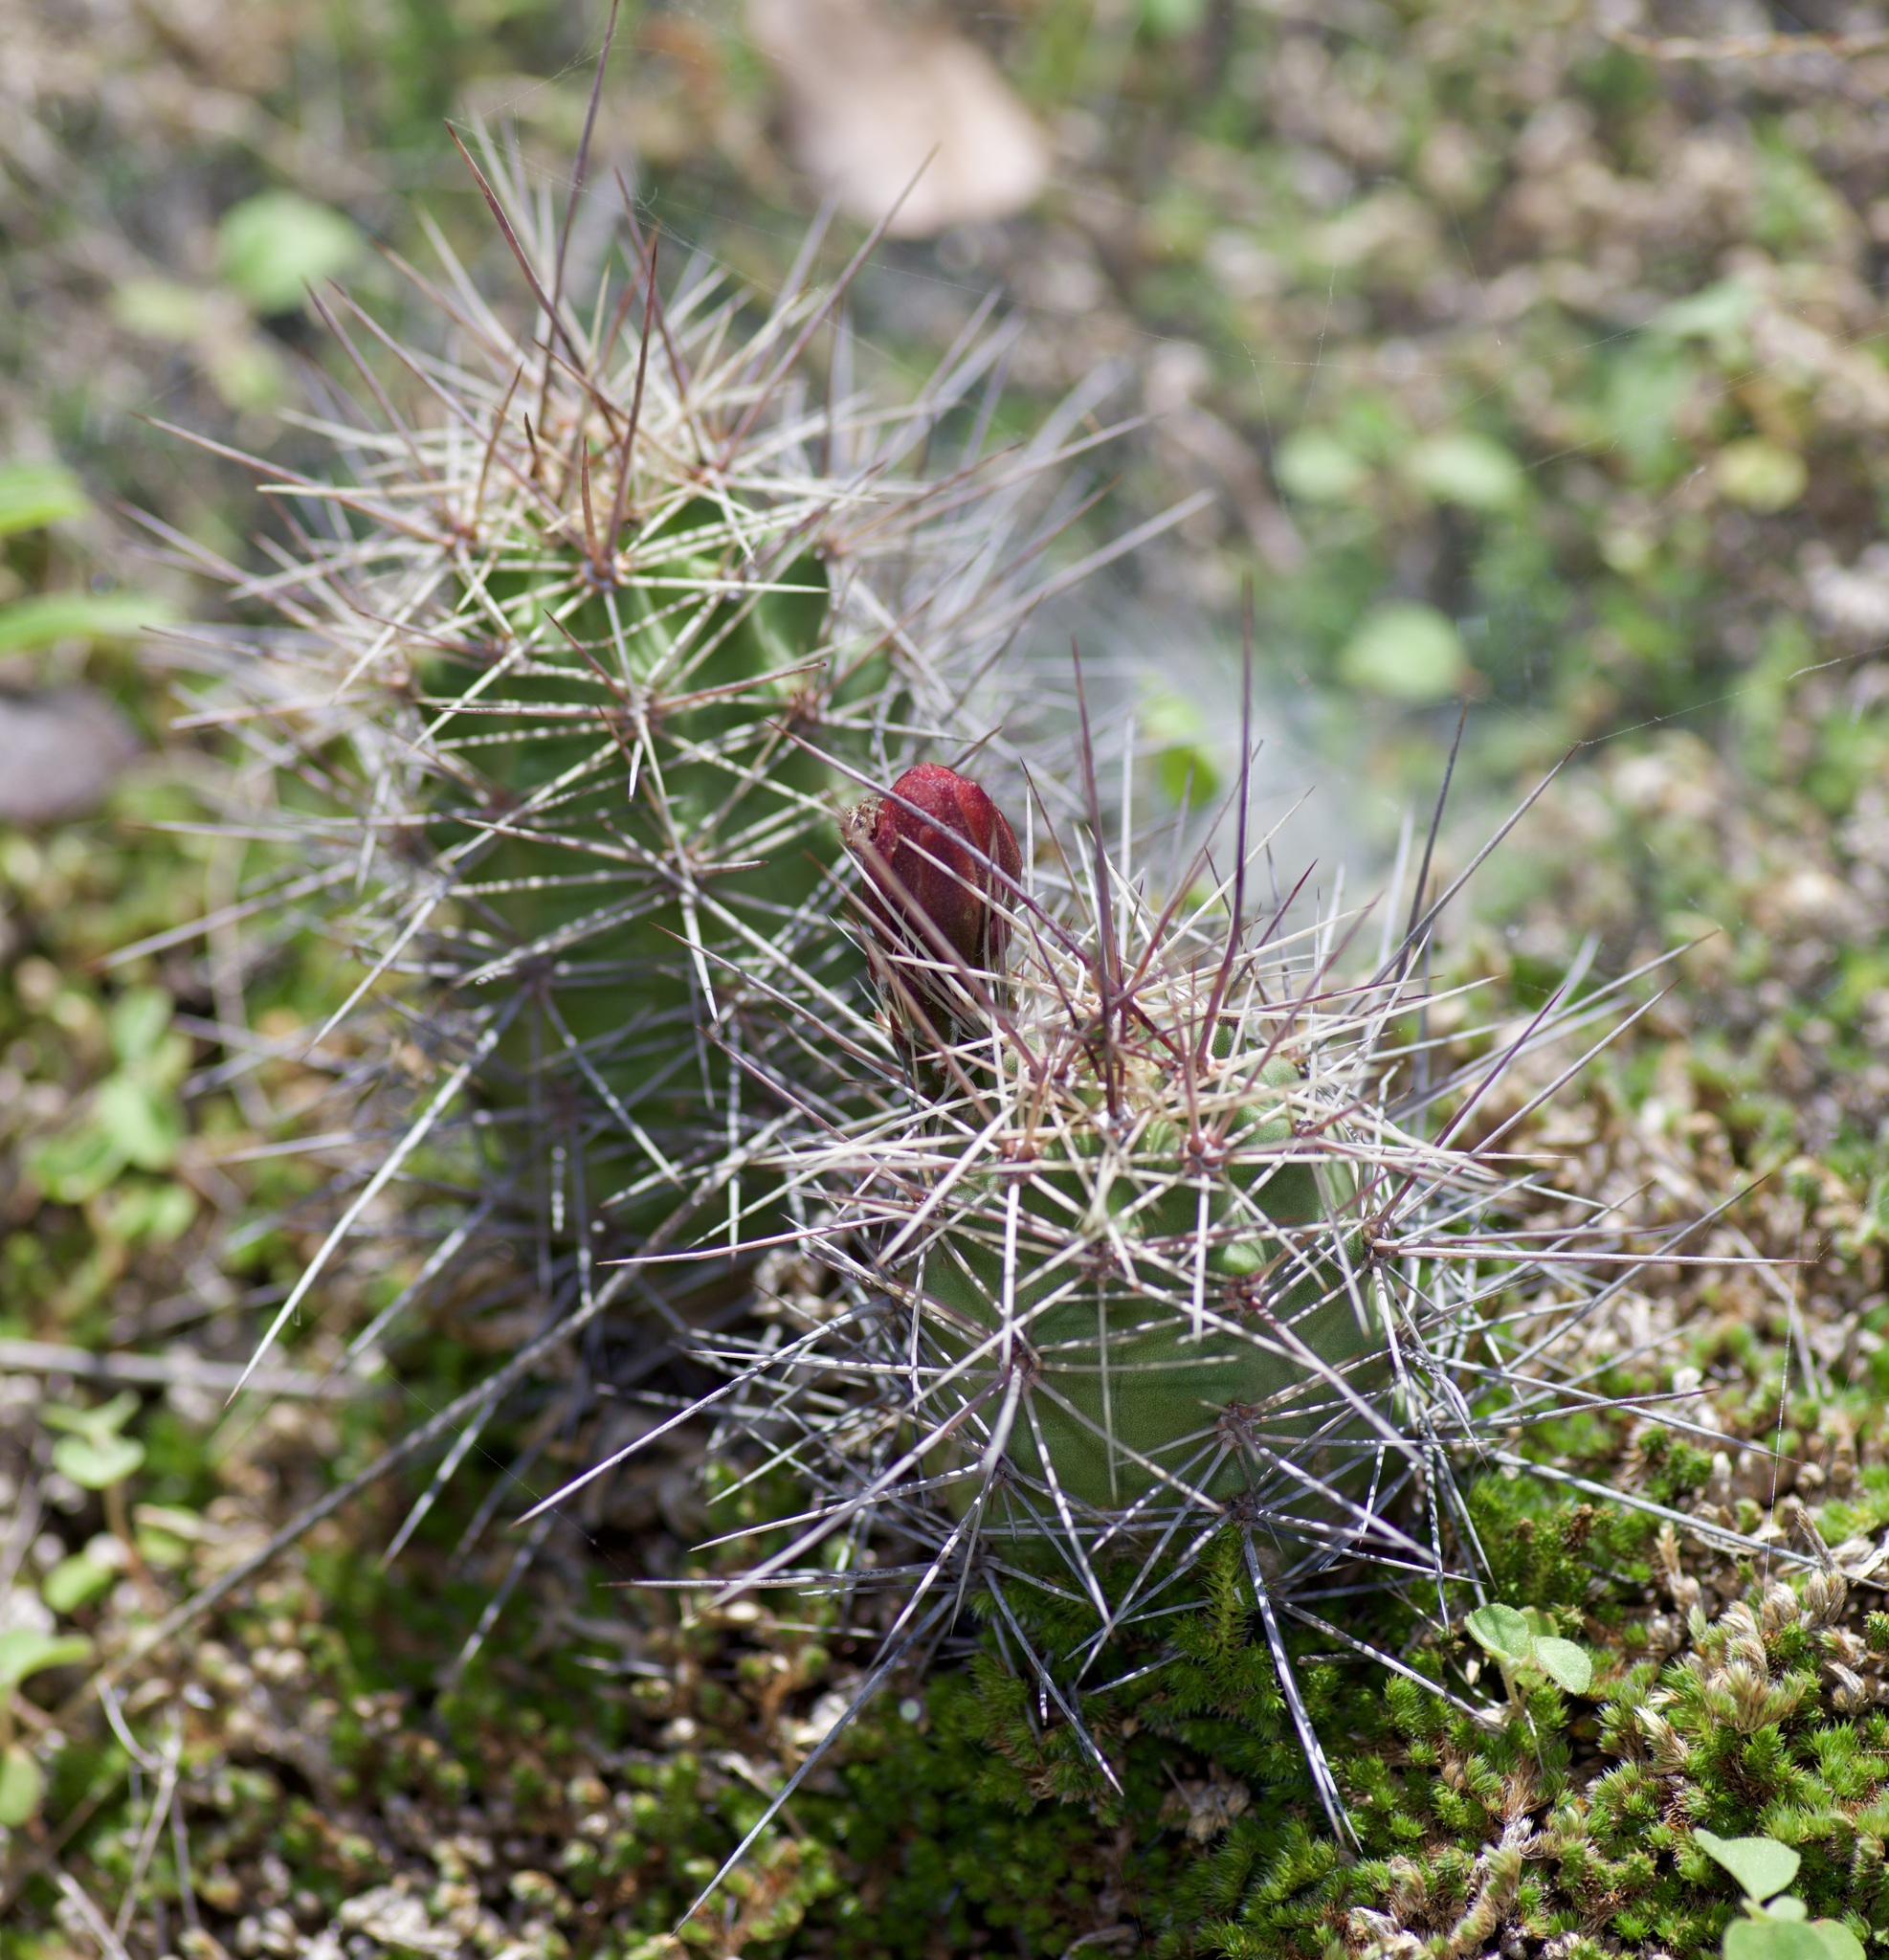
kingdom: Plantae
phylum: Tracheophyta
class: Magnoliopsida
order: Caryophyllales
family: Cactaceae
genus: Echinocereus
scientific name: Echinocereus coccineus
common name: Scarlet hedgehog cactus
